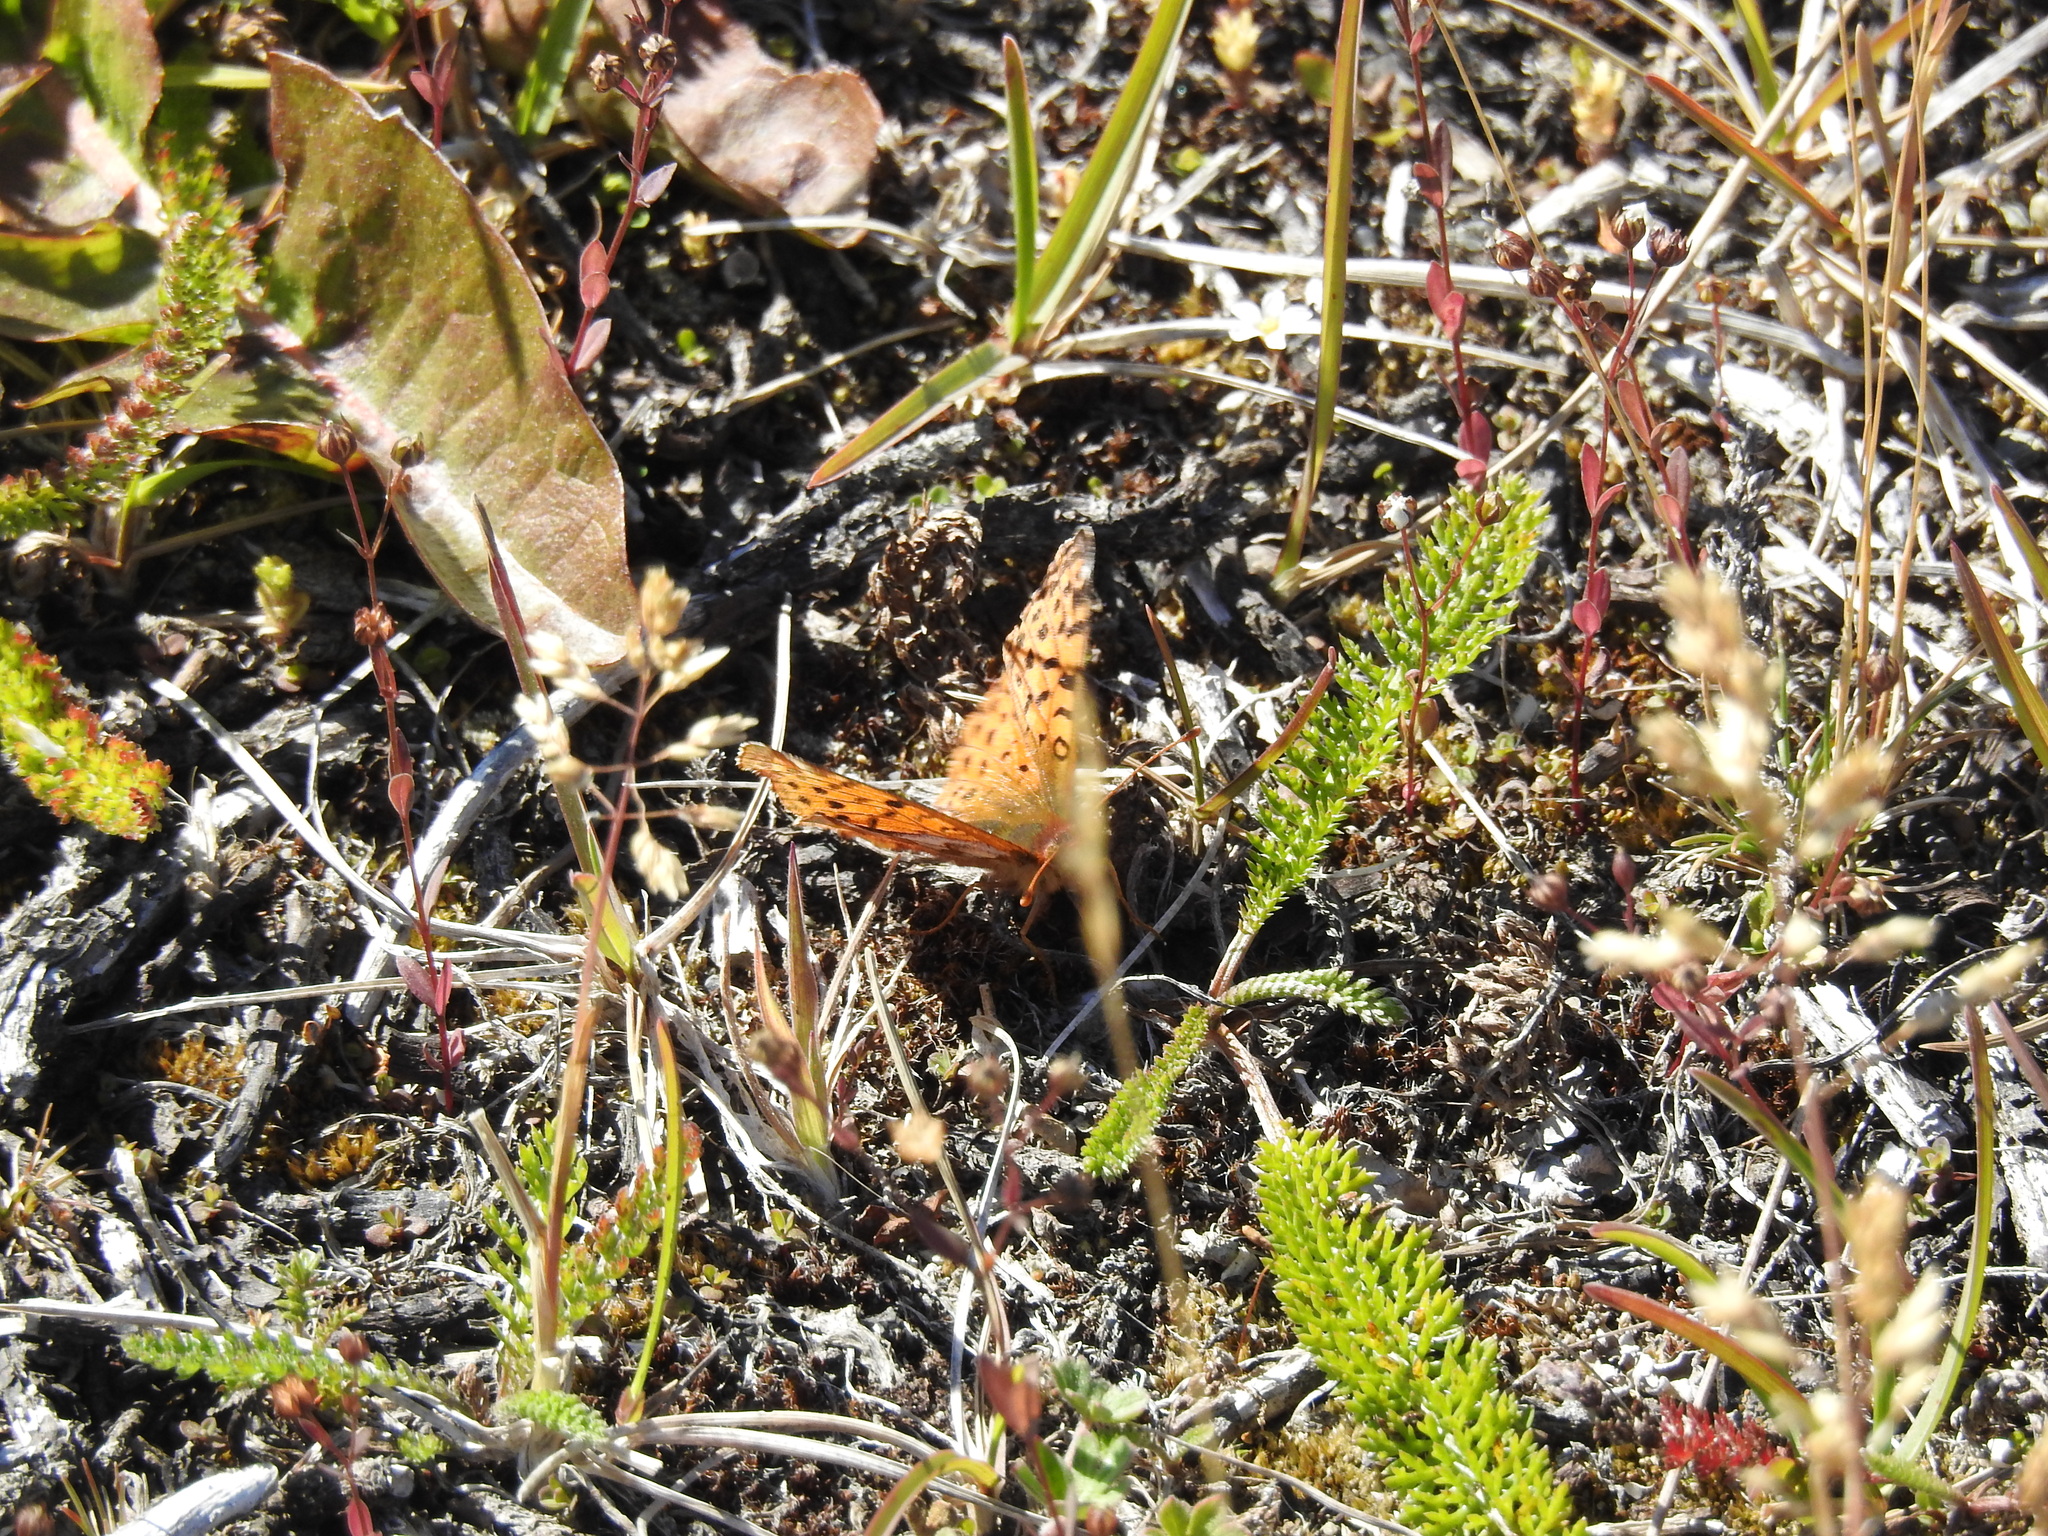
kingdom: Animalia
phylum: Arthropoda
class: Insecta
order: Lepidoptera
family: Nymphalidae
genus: Issoria
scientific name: Issoria Yramea cytheris
